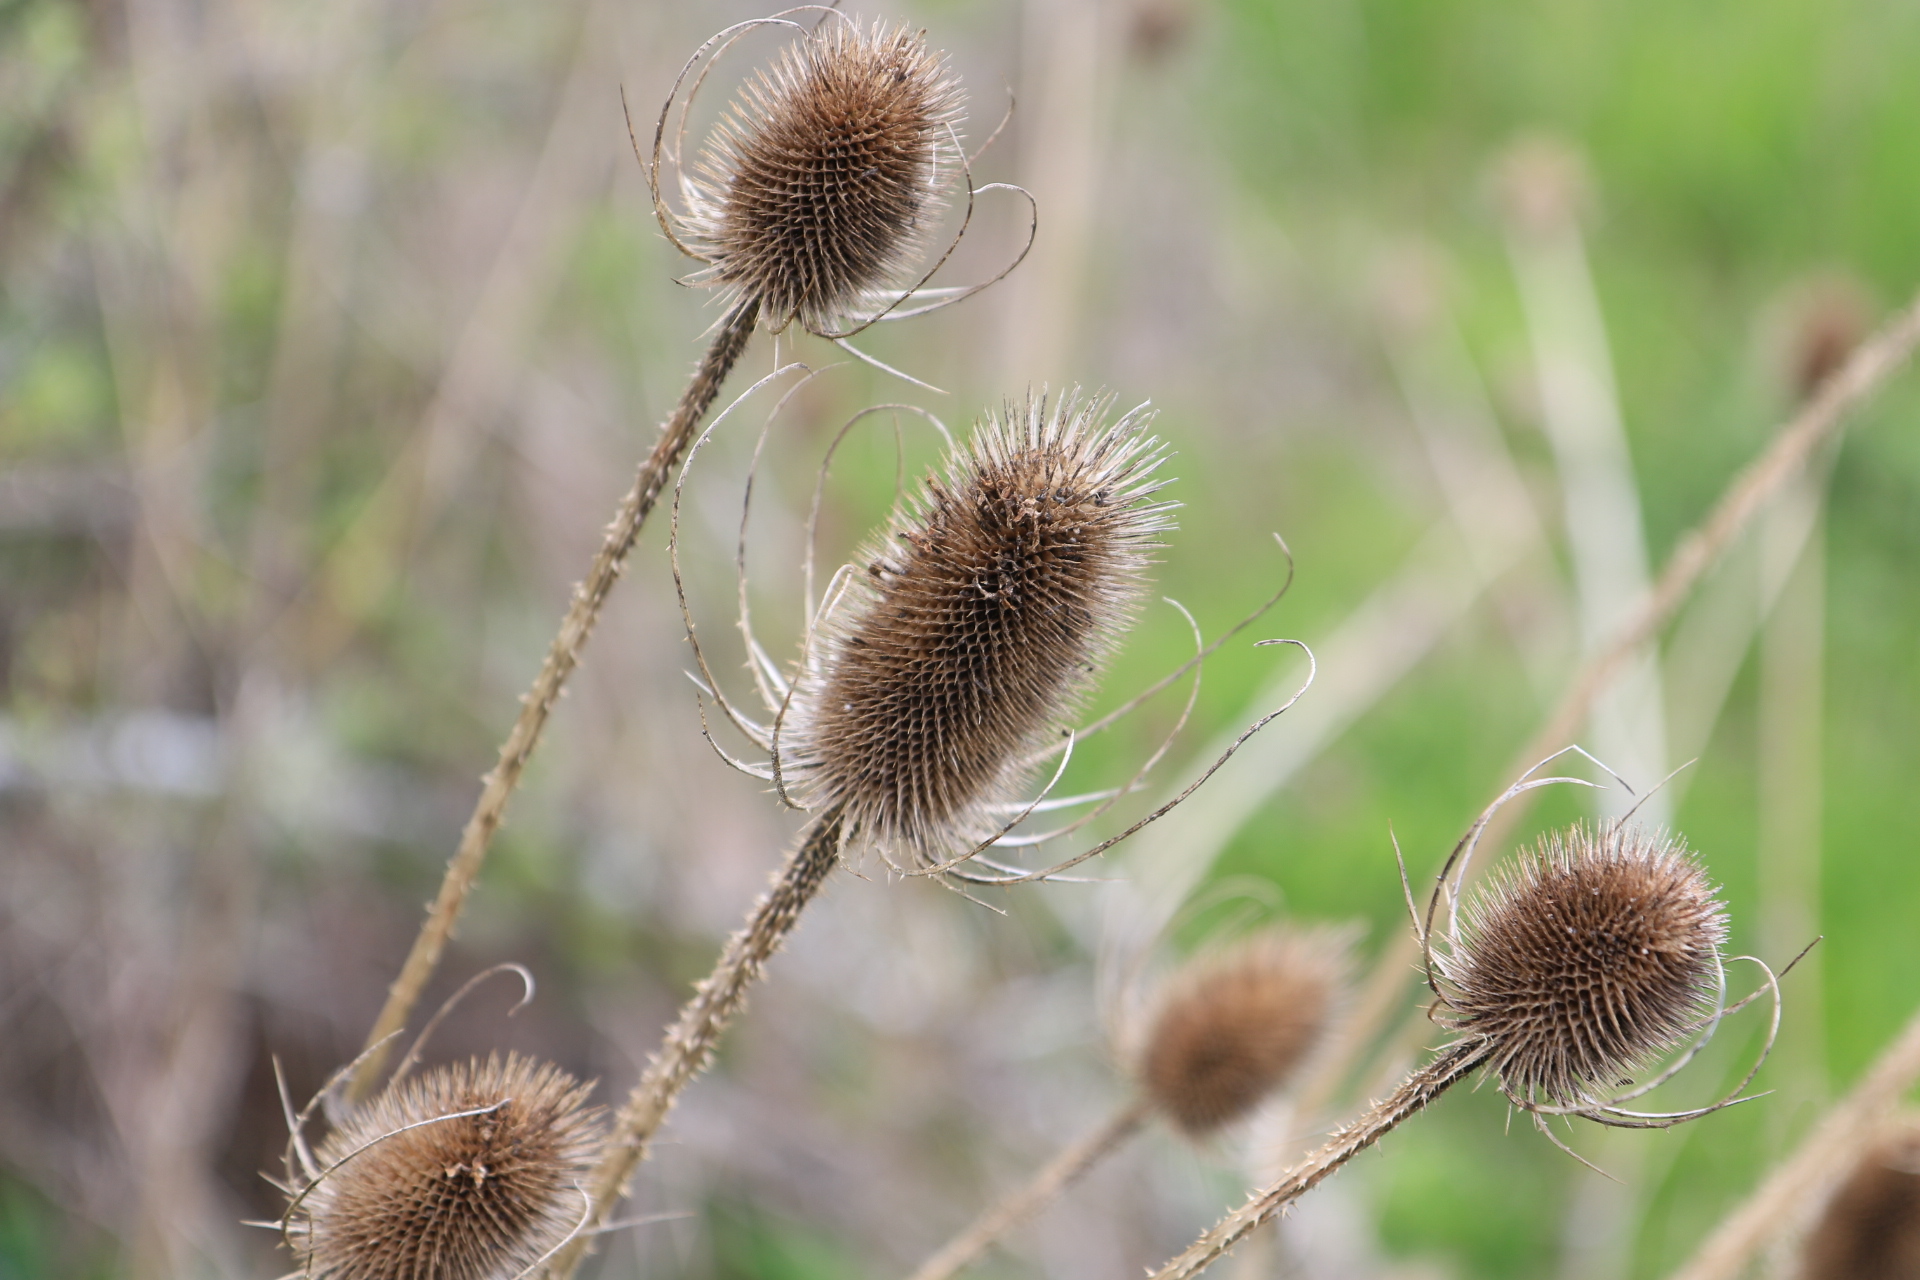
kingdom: Plantae
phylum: Tracheophyta
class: Magnoliopsida
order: Dipsacales
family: Caprifoliaceae
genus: Dipsacus
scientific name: Dipsacus fullonum
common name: Teasel
